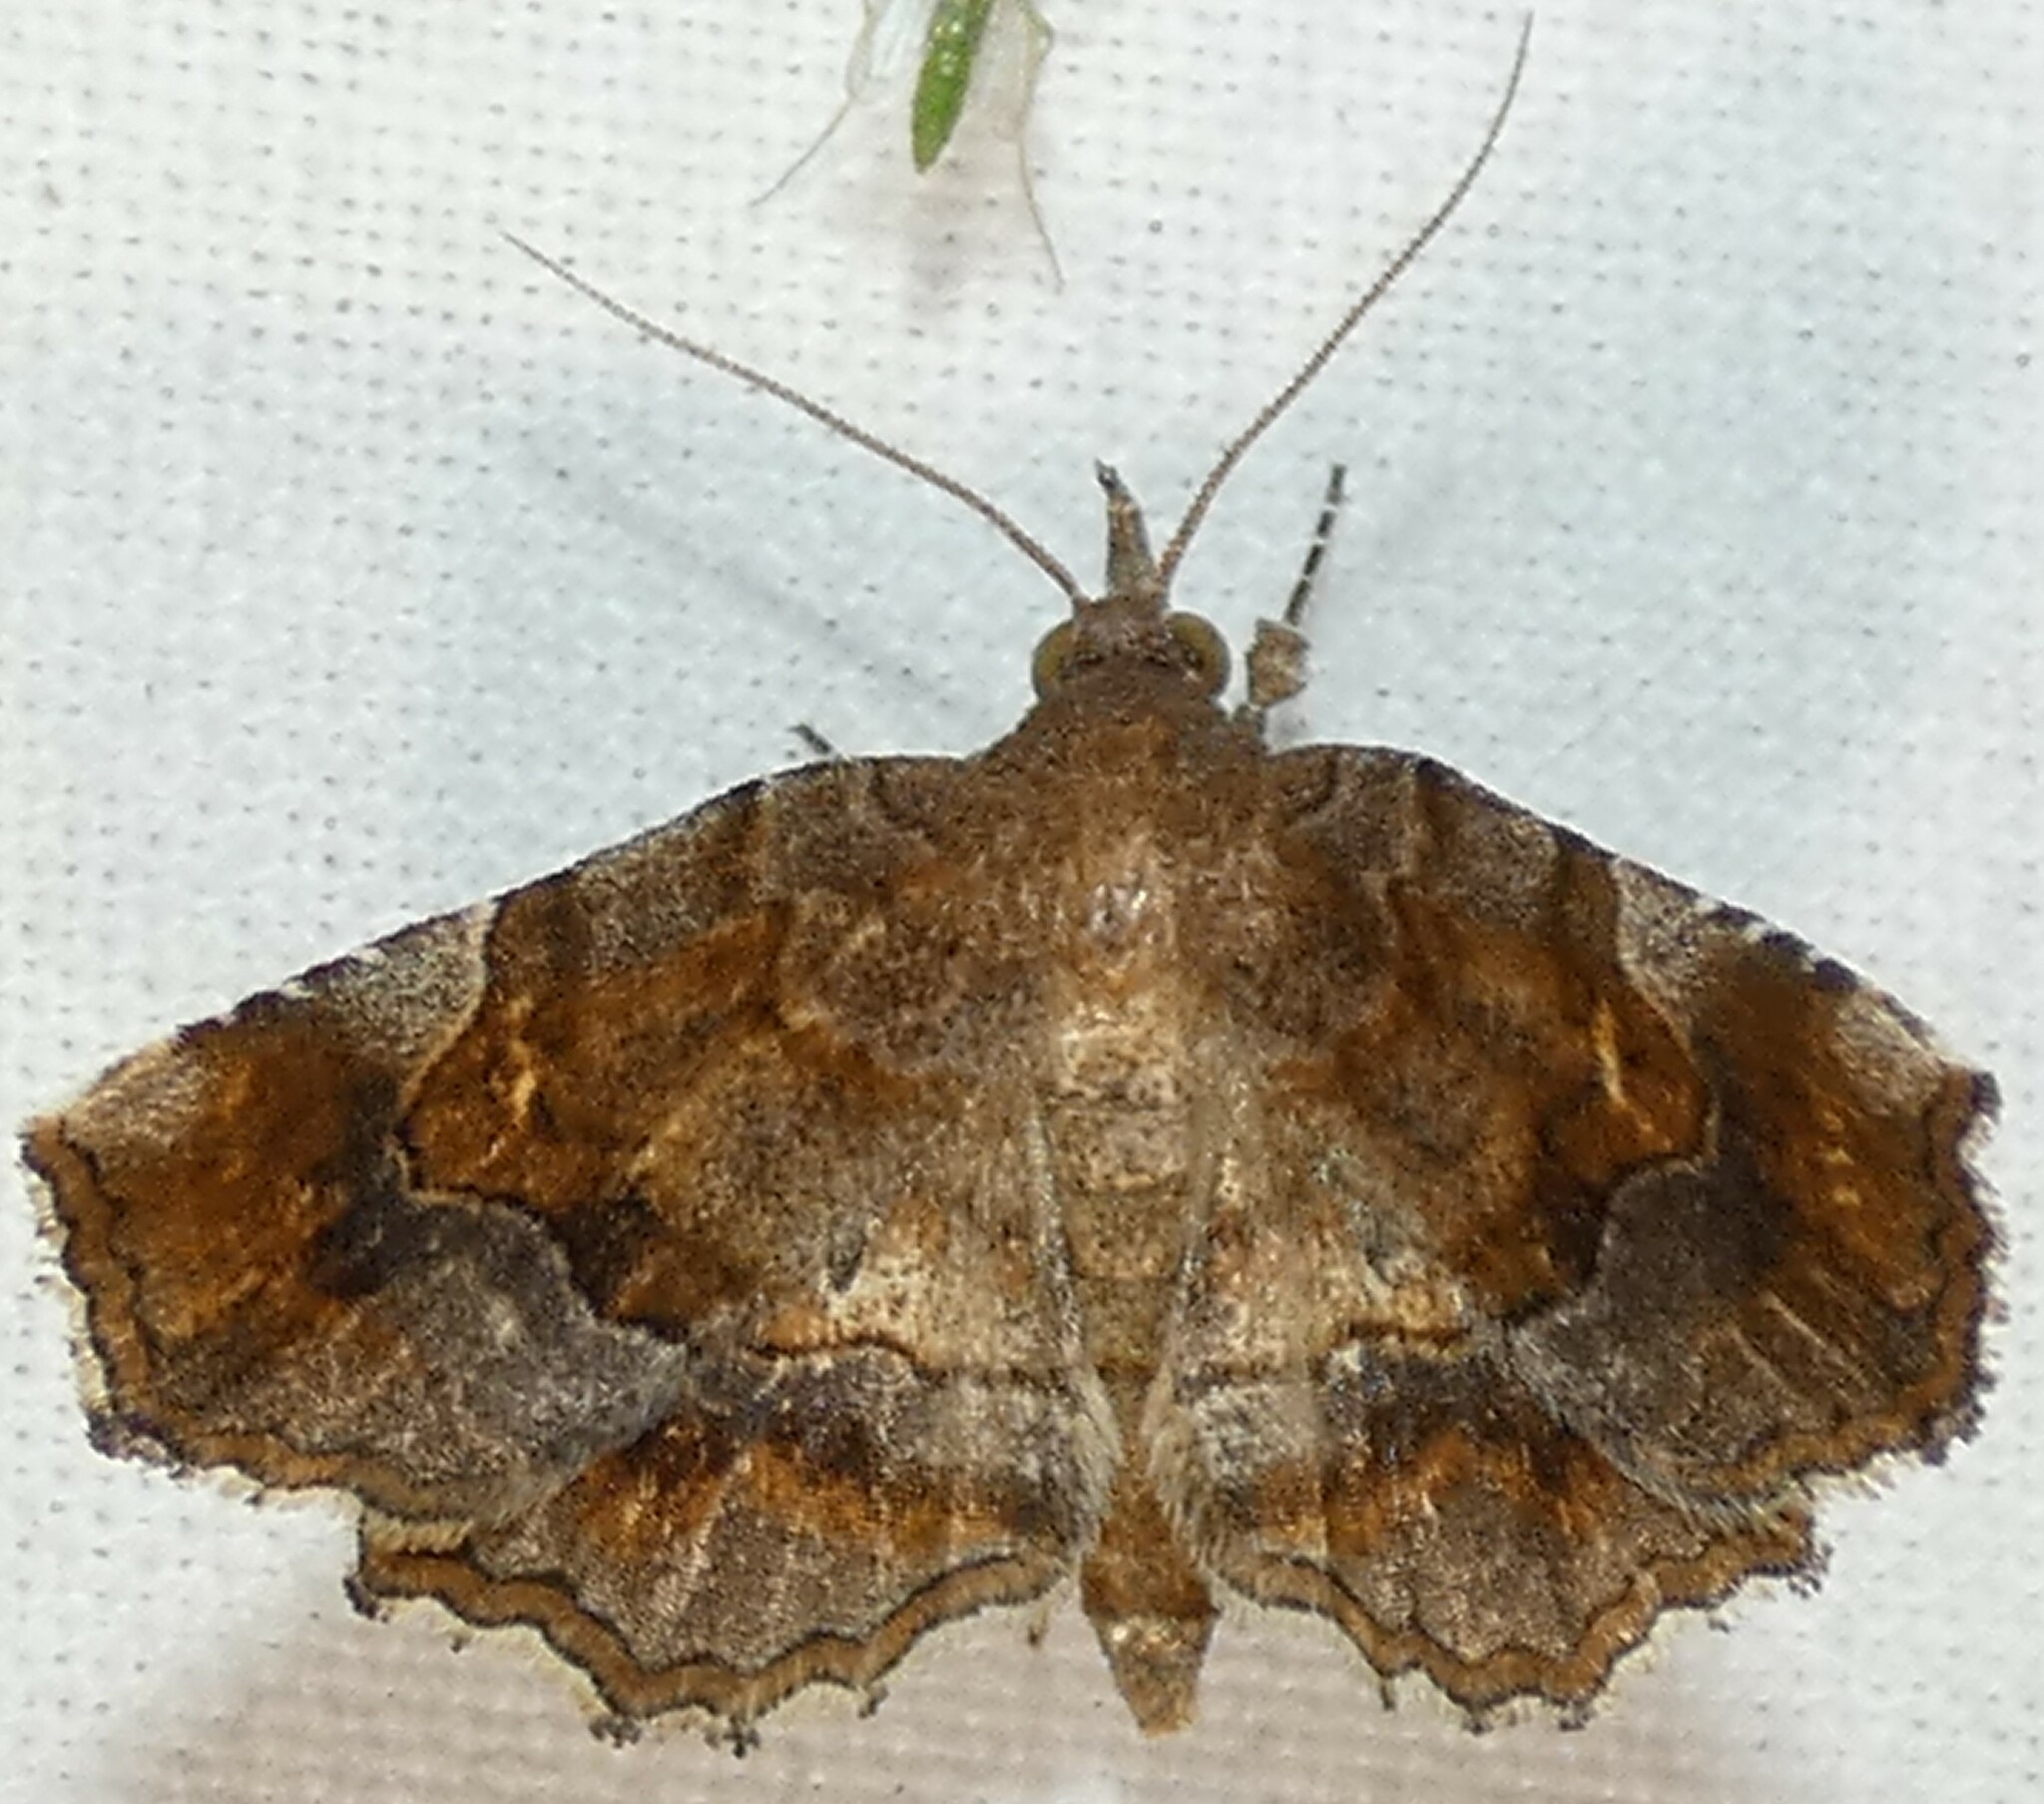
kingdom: Animalia
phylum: Arthropoda
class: Insecta
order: Lepidoptera
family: Erebidae
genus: Pangrapta
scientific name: Pangrapta decoralis
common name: Decorated owlet
